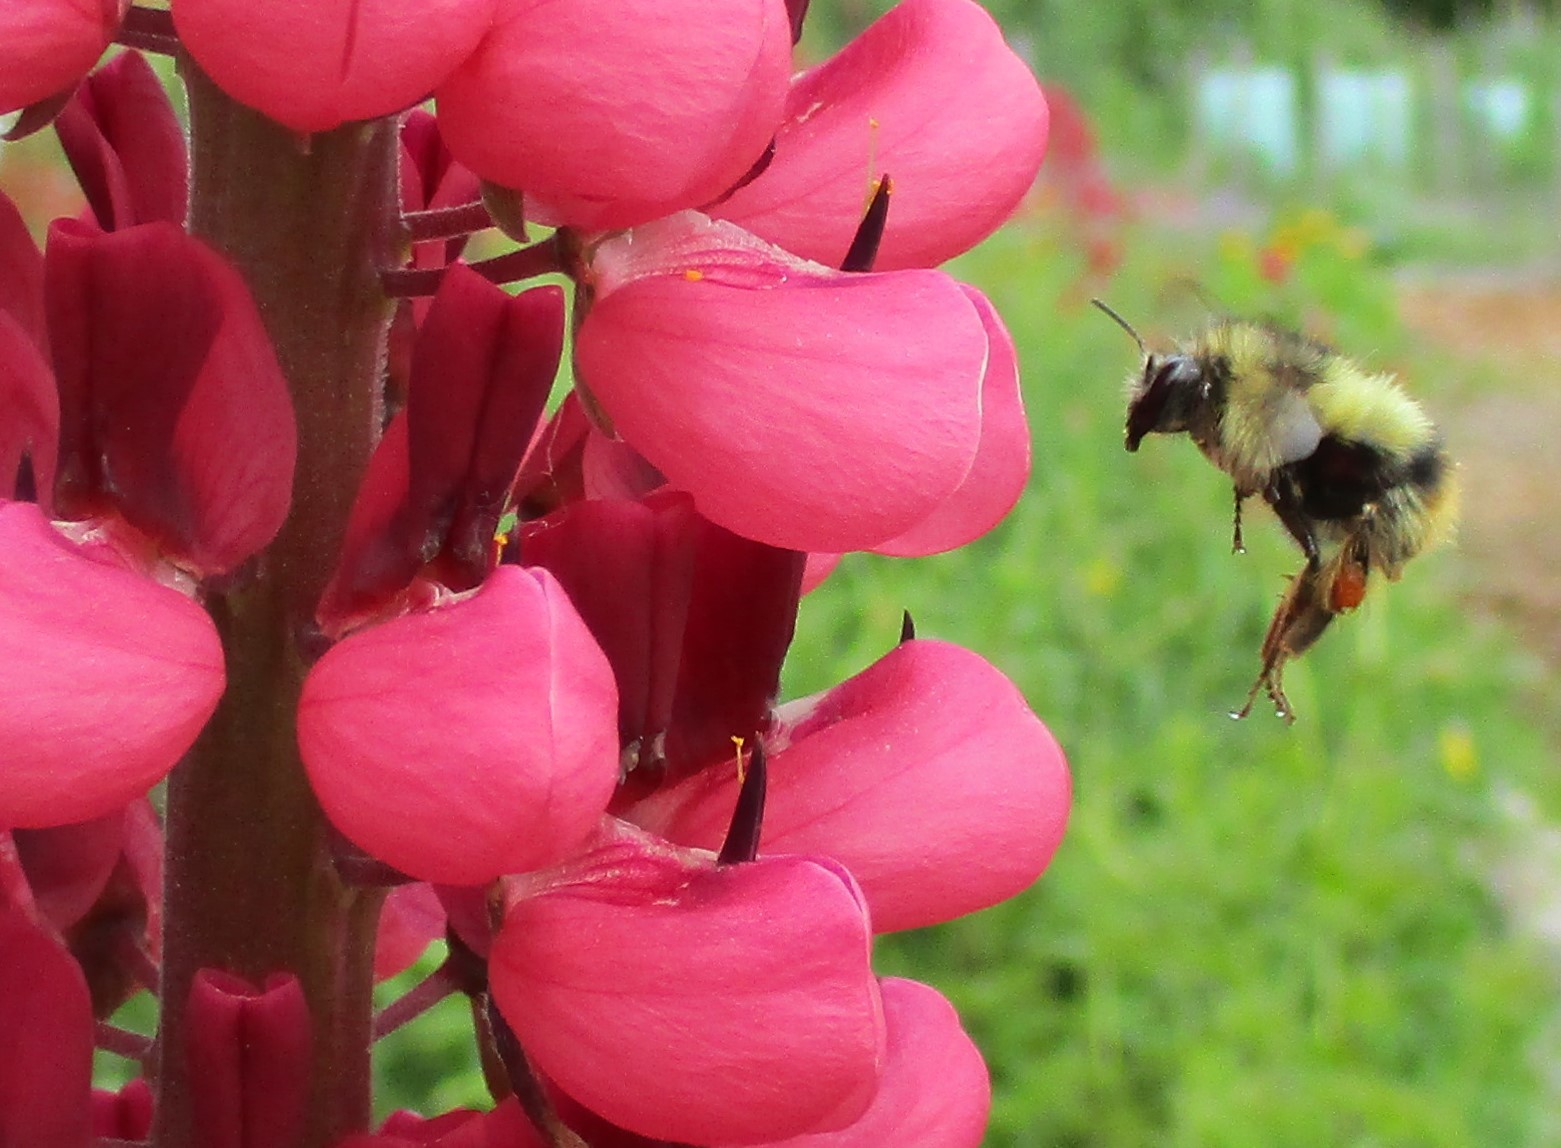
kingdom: Animalia
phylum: Arthropoda
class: Insecta
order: Hymenoptera
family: Apidae
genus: Bombus
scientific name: Bombus mixtus
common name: Fuzzy-horned bumble bee
